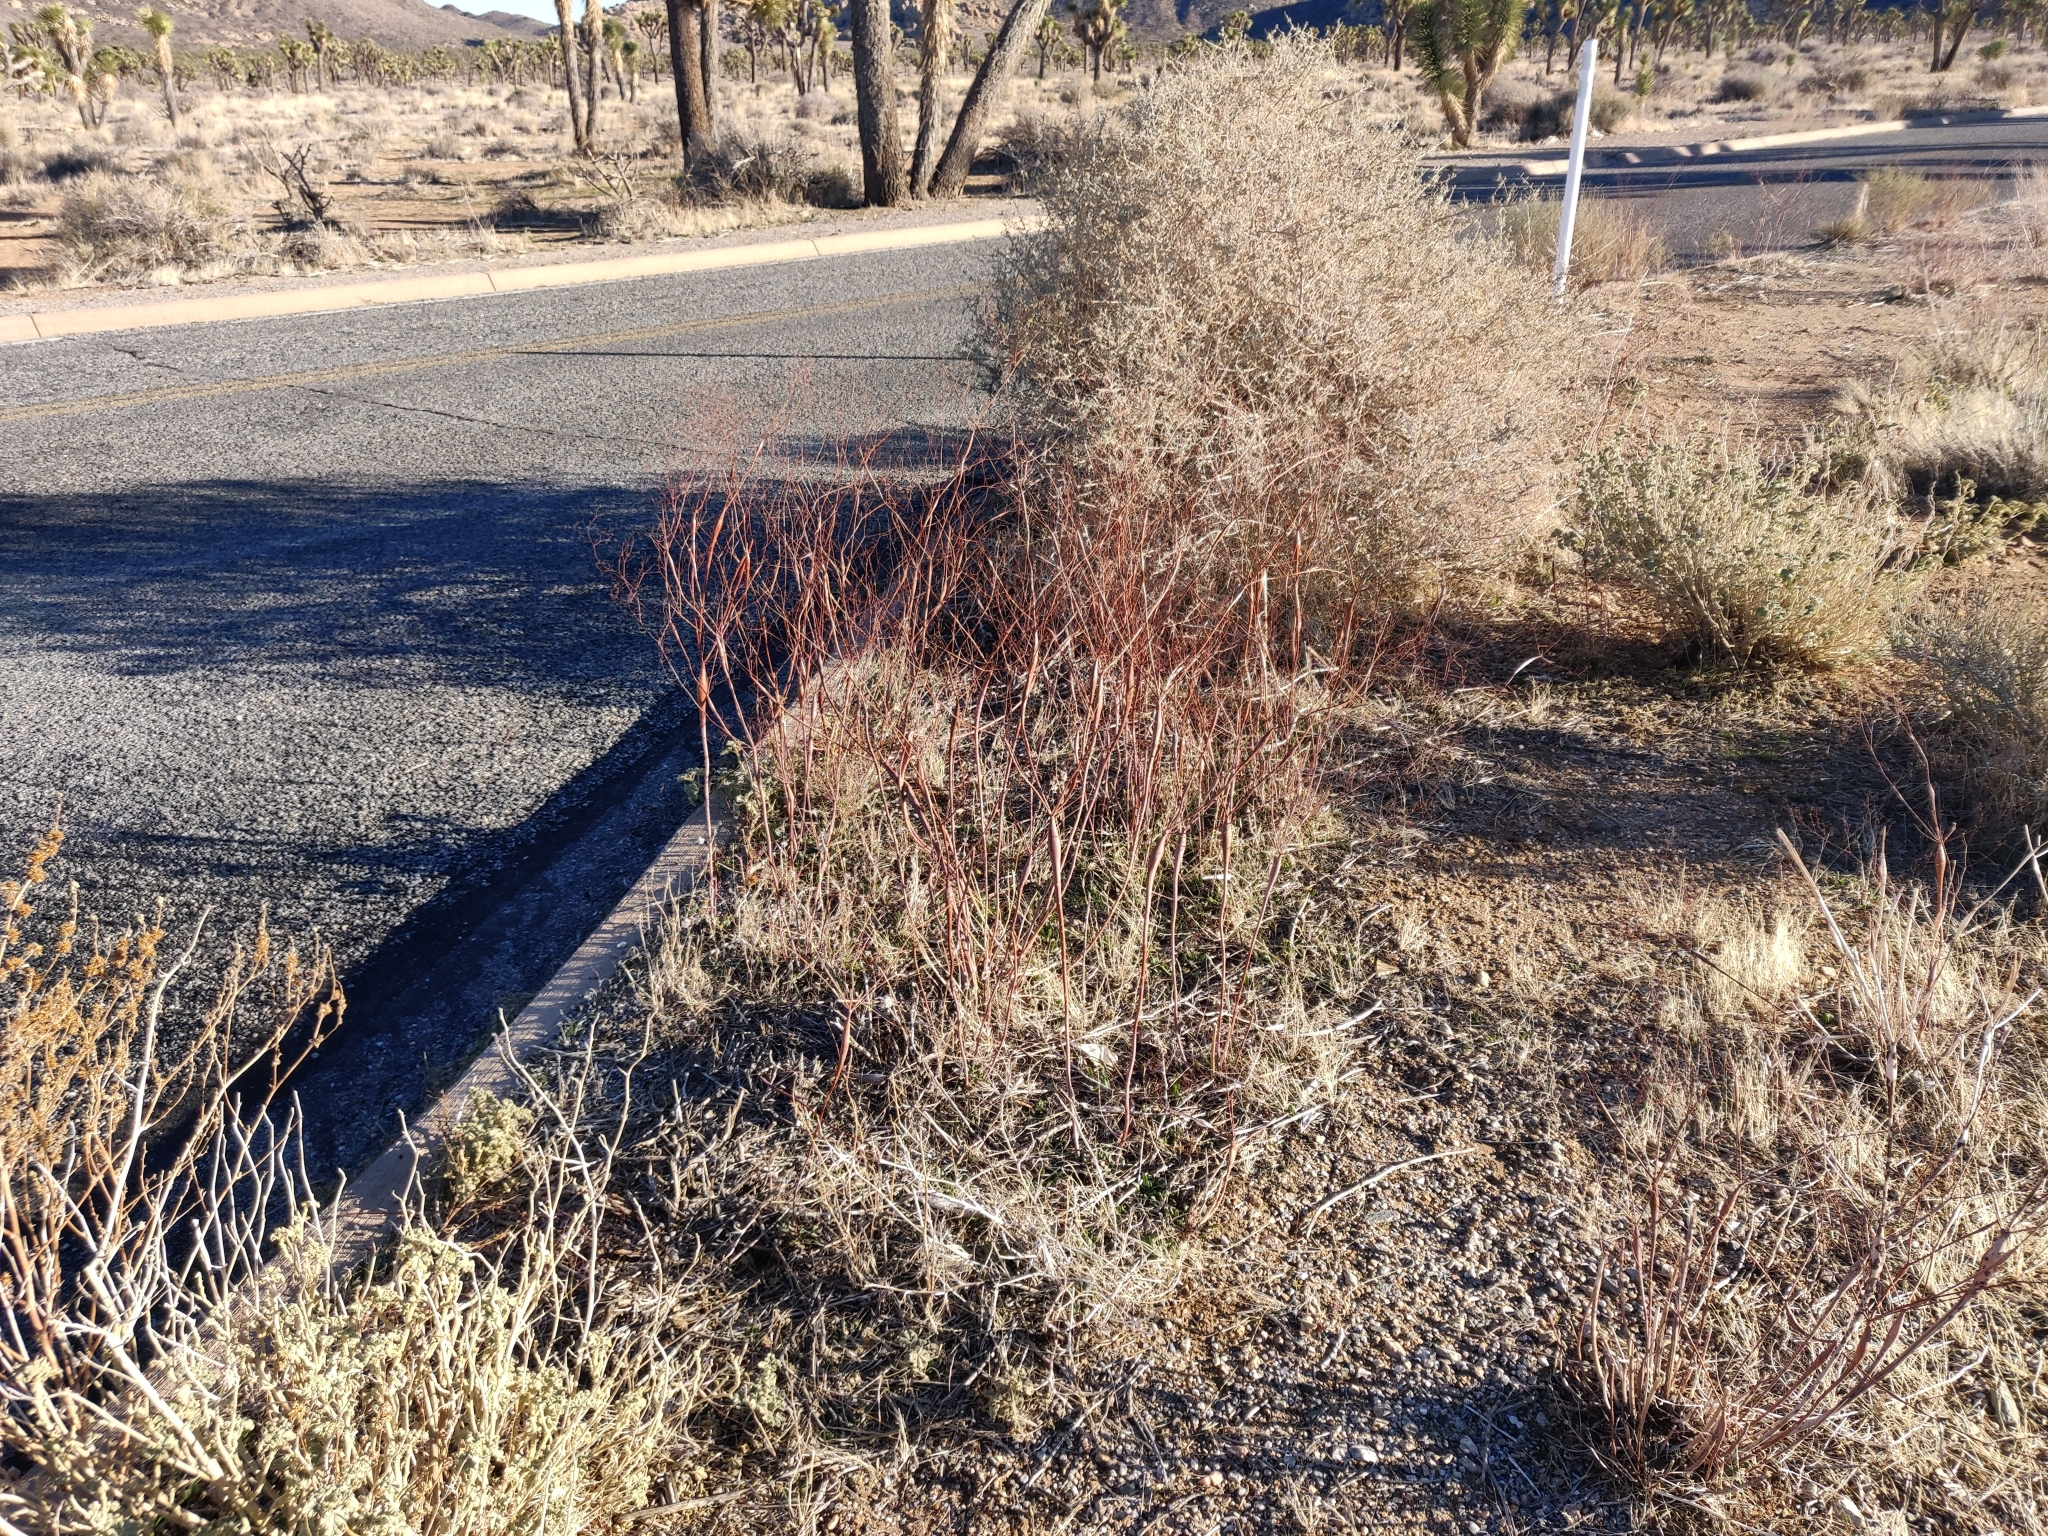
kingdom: Plantae
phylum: Tracheophyta
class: Magnoliopsida
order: Caryophyllales
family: Polygonaceae
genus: Eriogonum
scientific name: Eriogonum inflatum
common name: Desert trumpet
